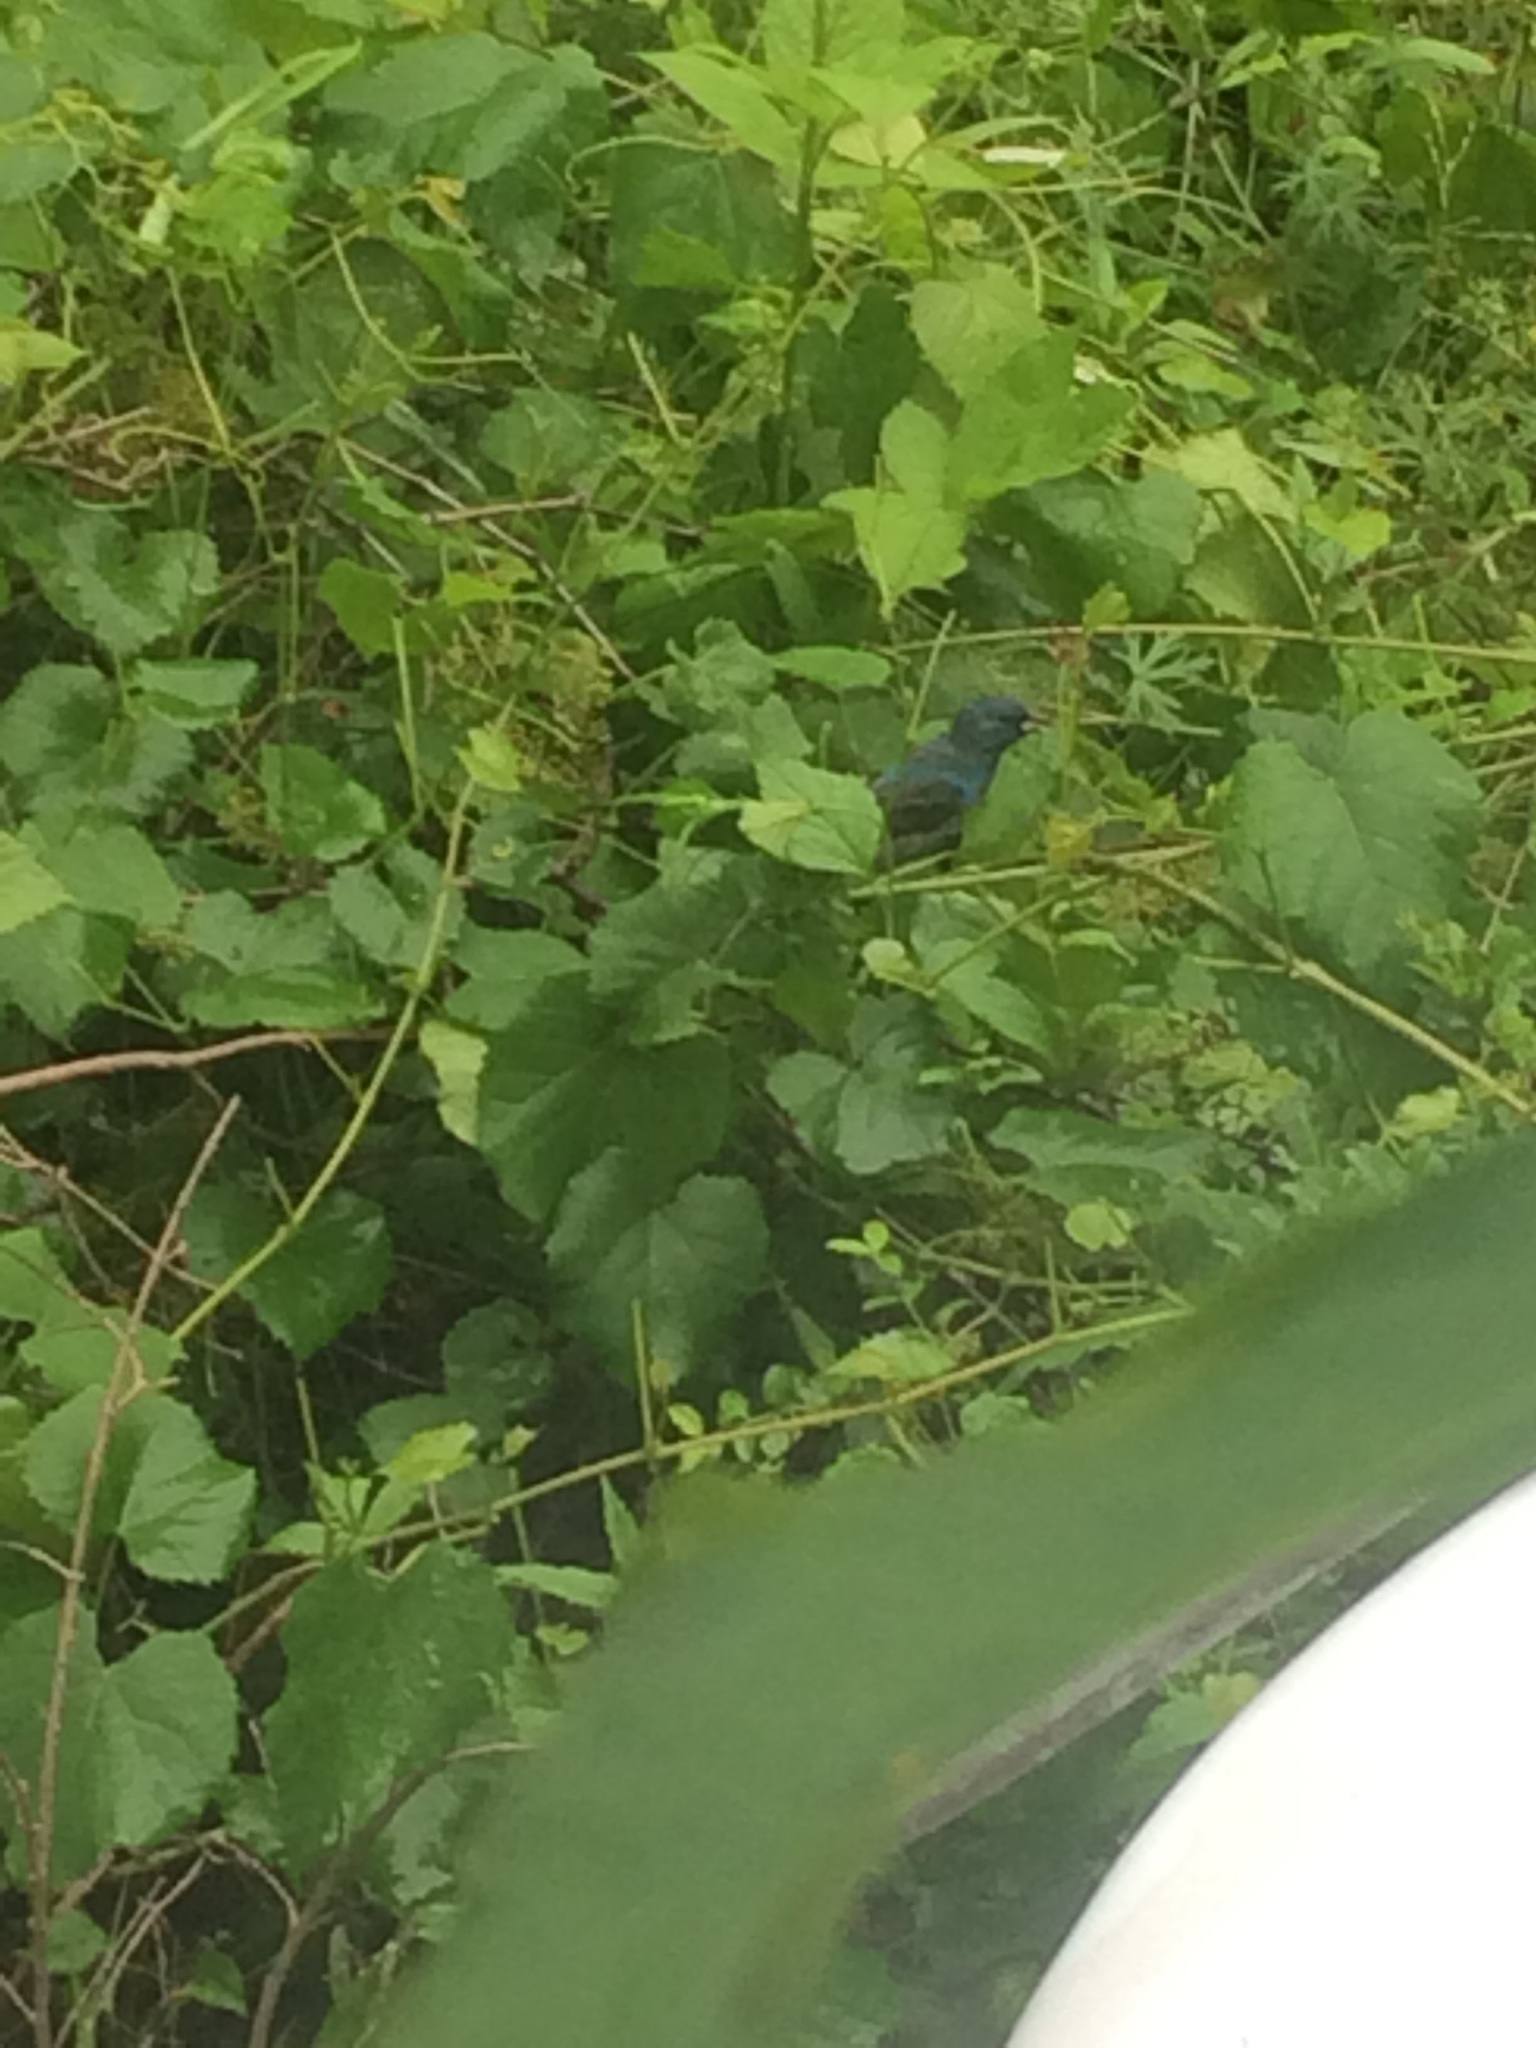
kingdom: Animalia
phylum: Chordata
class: Aves
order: Passeriformes
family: Cardinalidae
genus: Passerina
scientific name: Passerina cyanea
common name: Indigo bunting
